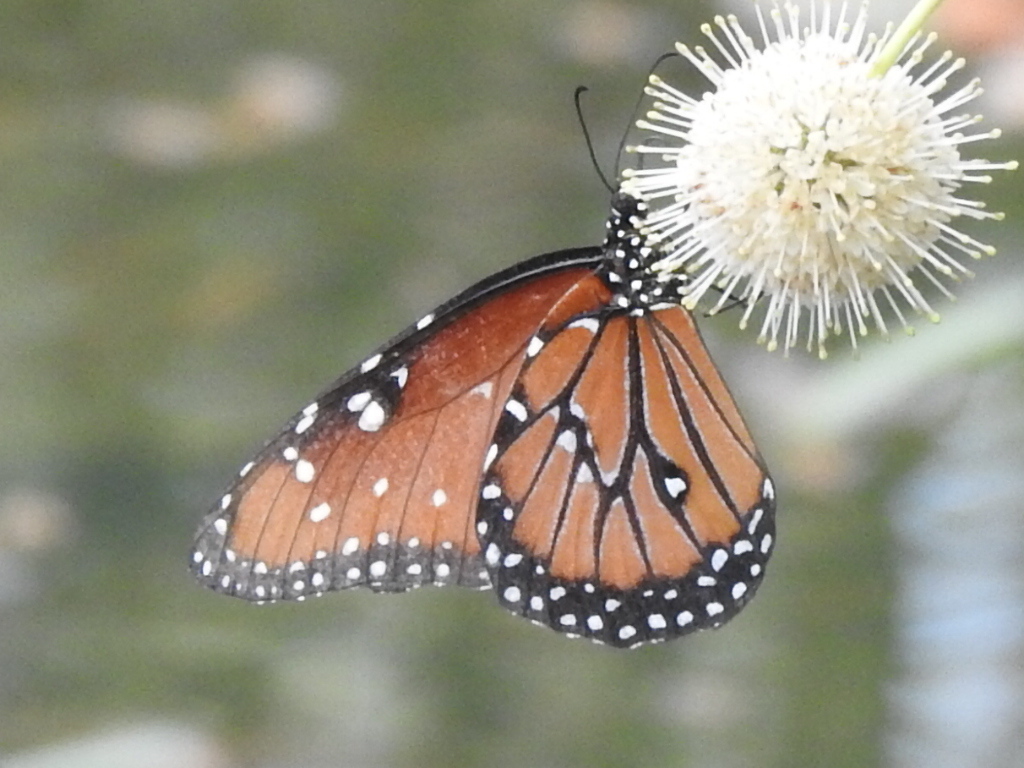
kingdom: Animalia
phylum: Arthropoda
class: Insecta
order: Lepidoptera
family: Nymphalidae
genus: Danaus
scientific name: Danaus gilippus
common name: Queen
